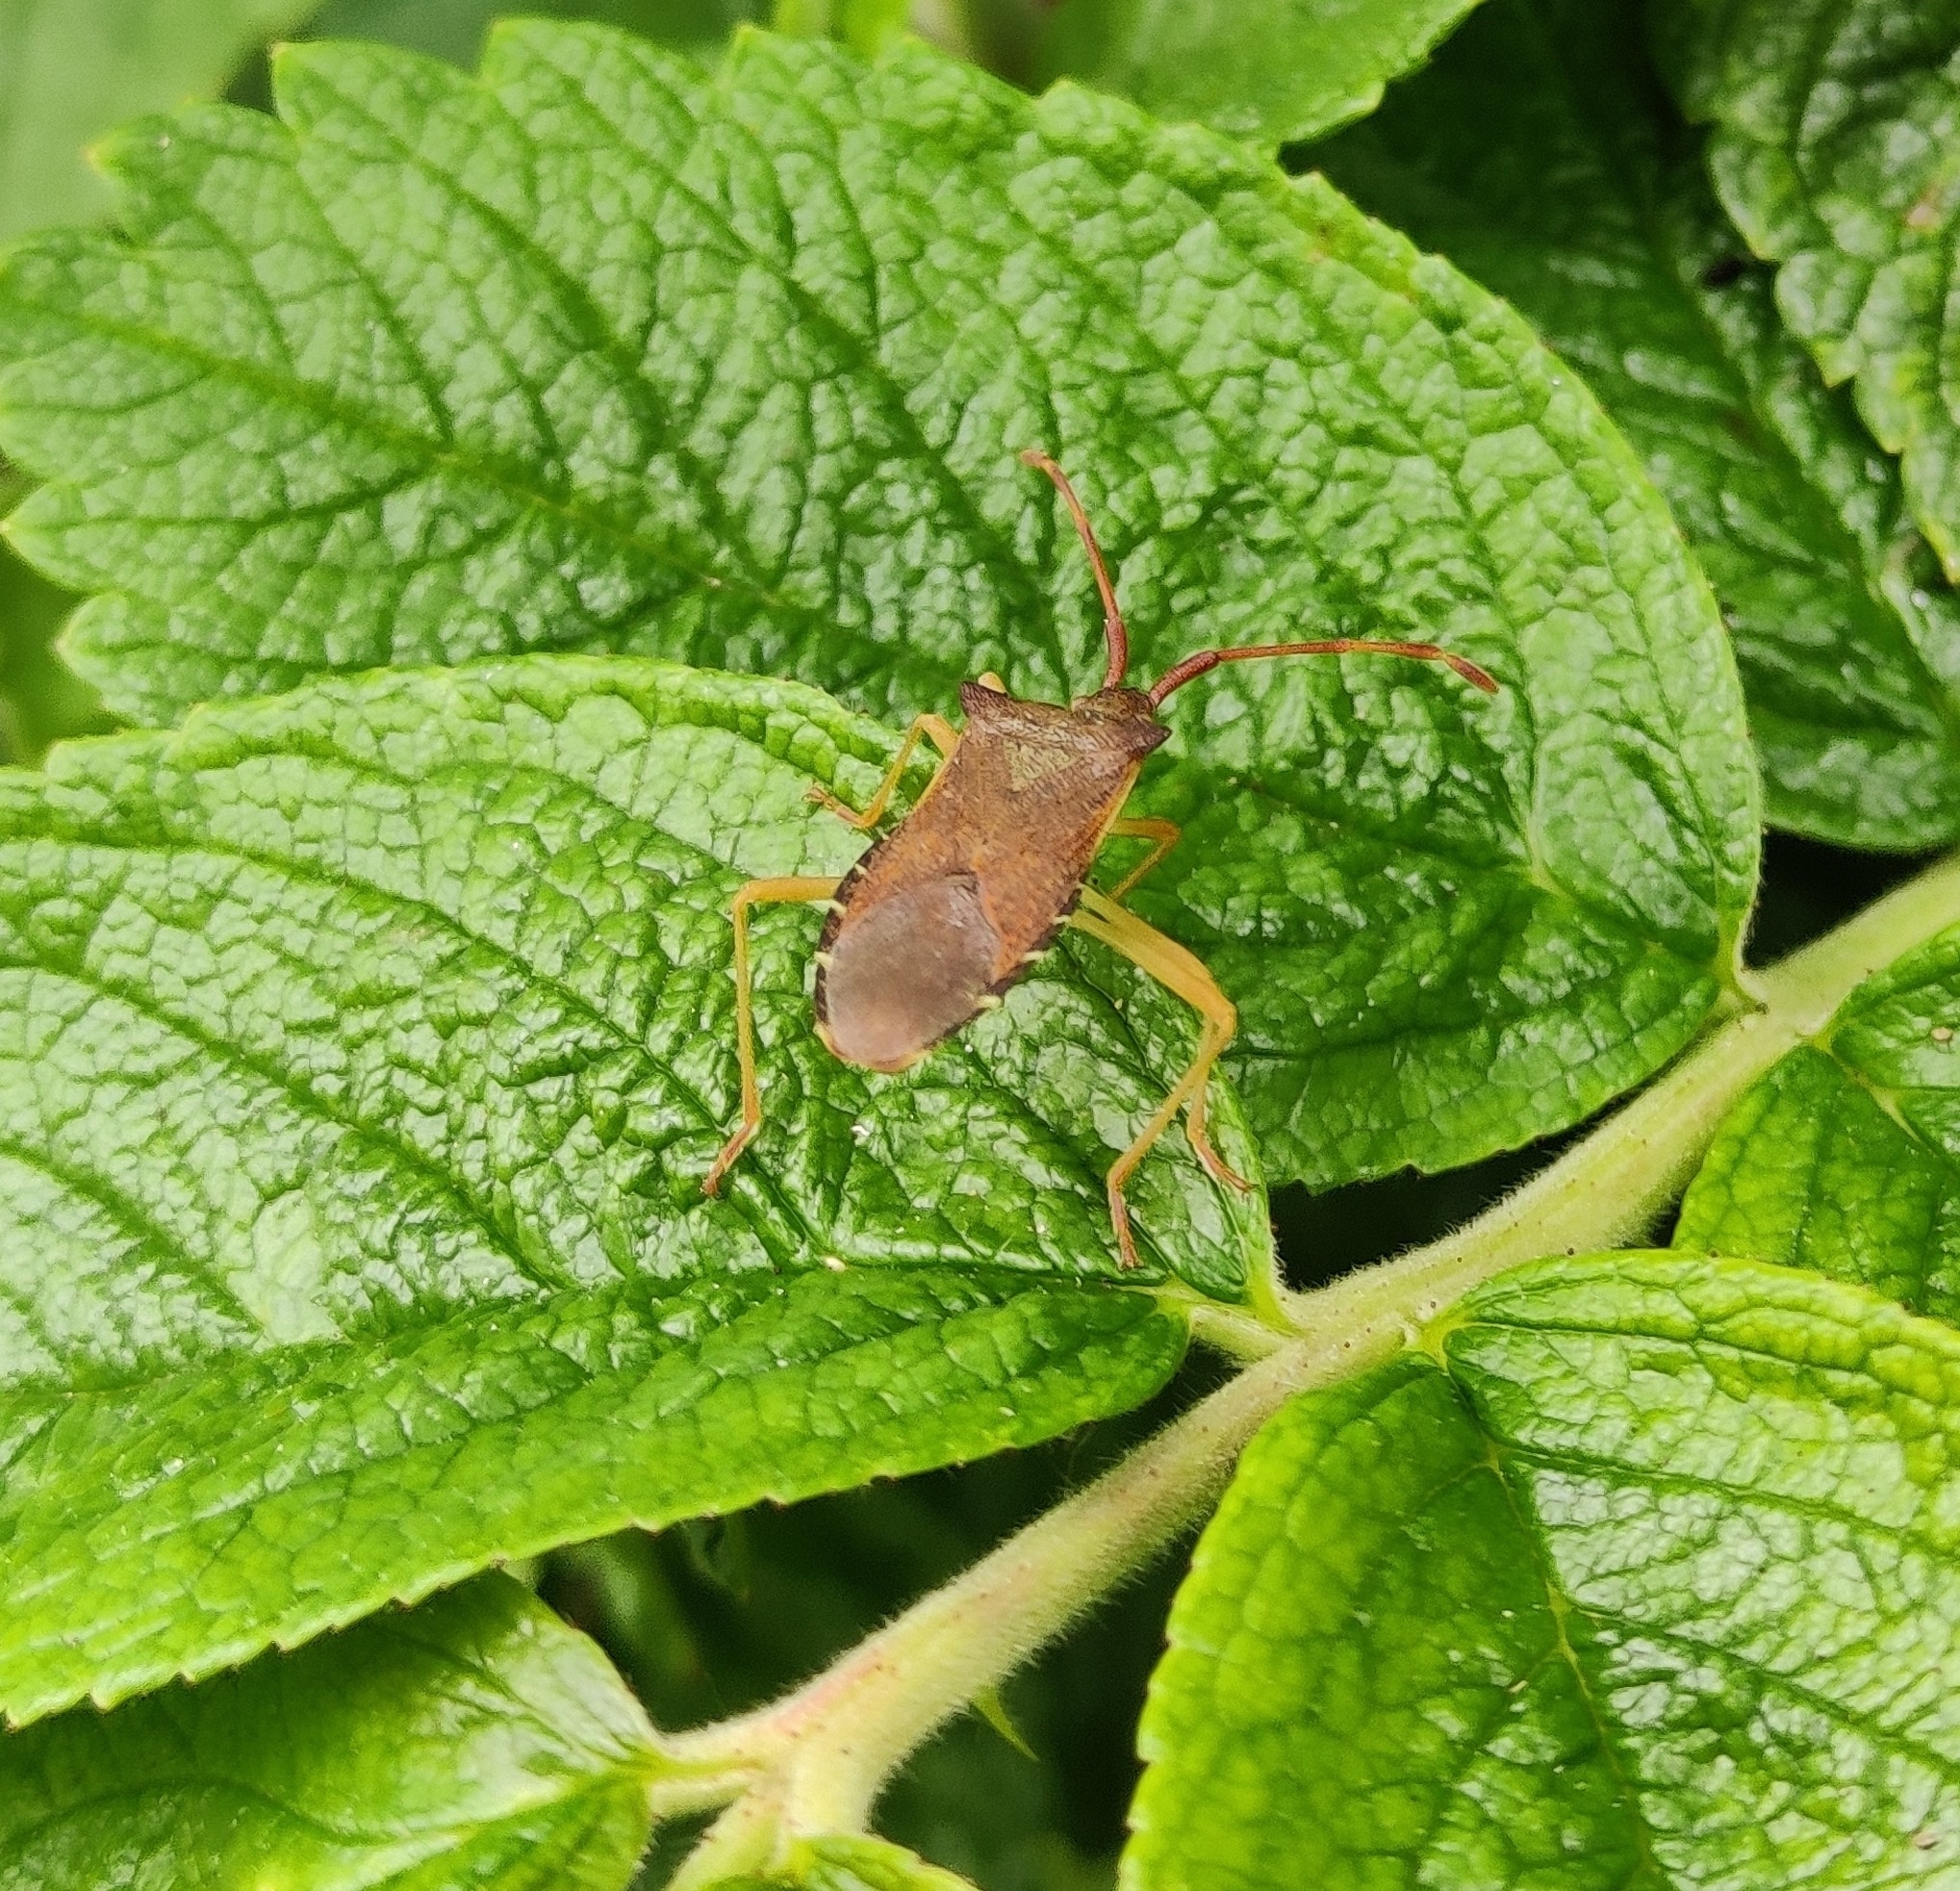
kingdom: Animalia
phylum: Arthropoda
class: Insecta
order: Hemiptera
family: Coreidae
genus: Gonocerus
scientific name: Gonocerus acuteangulatus
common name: Box bug
